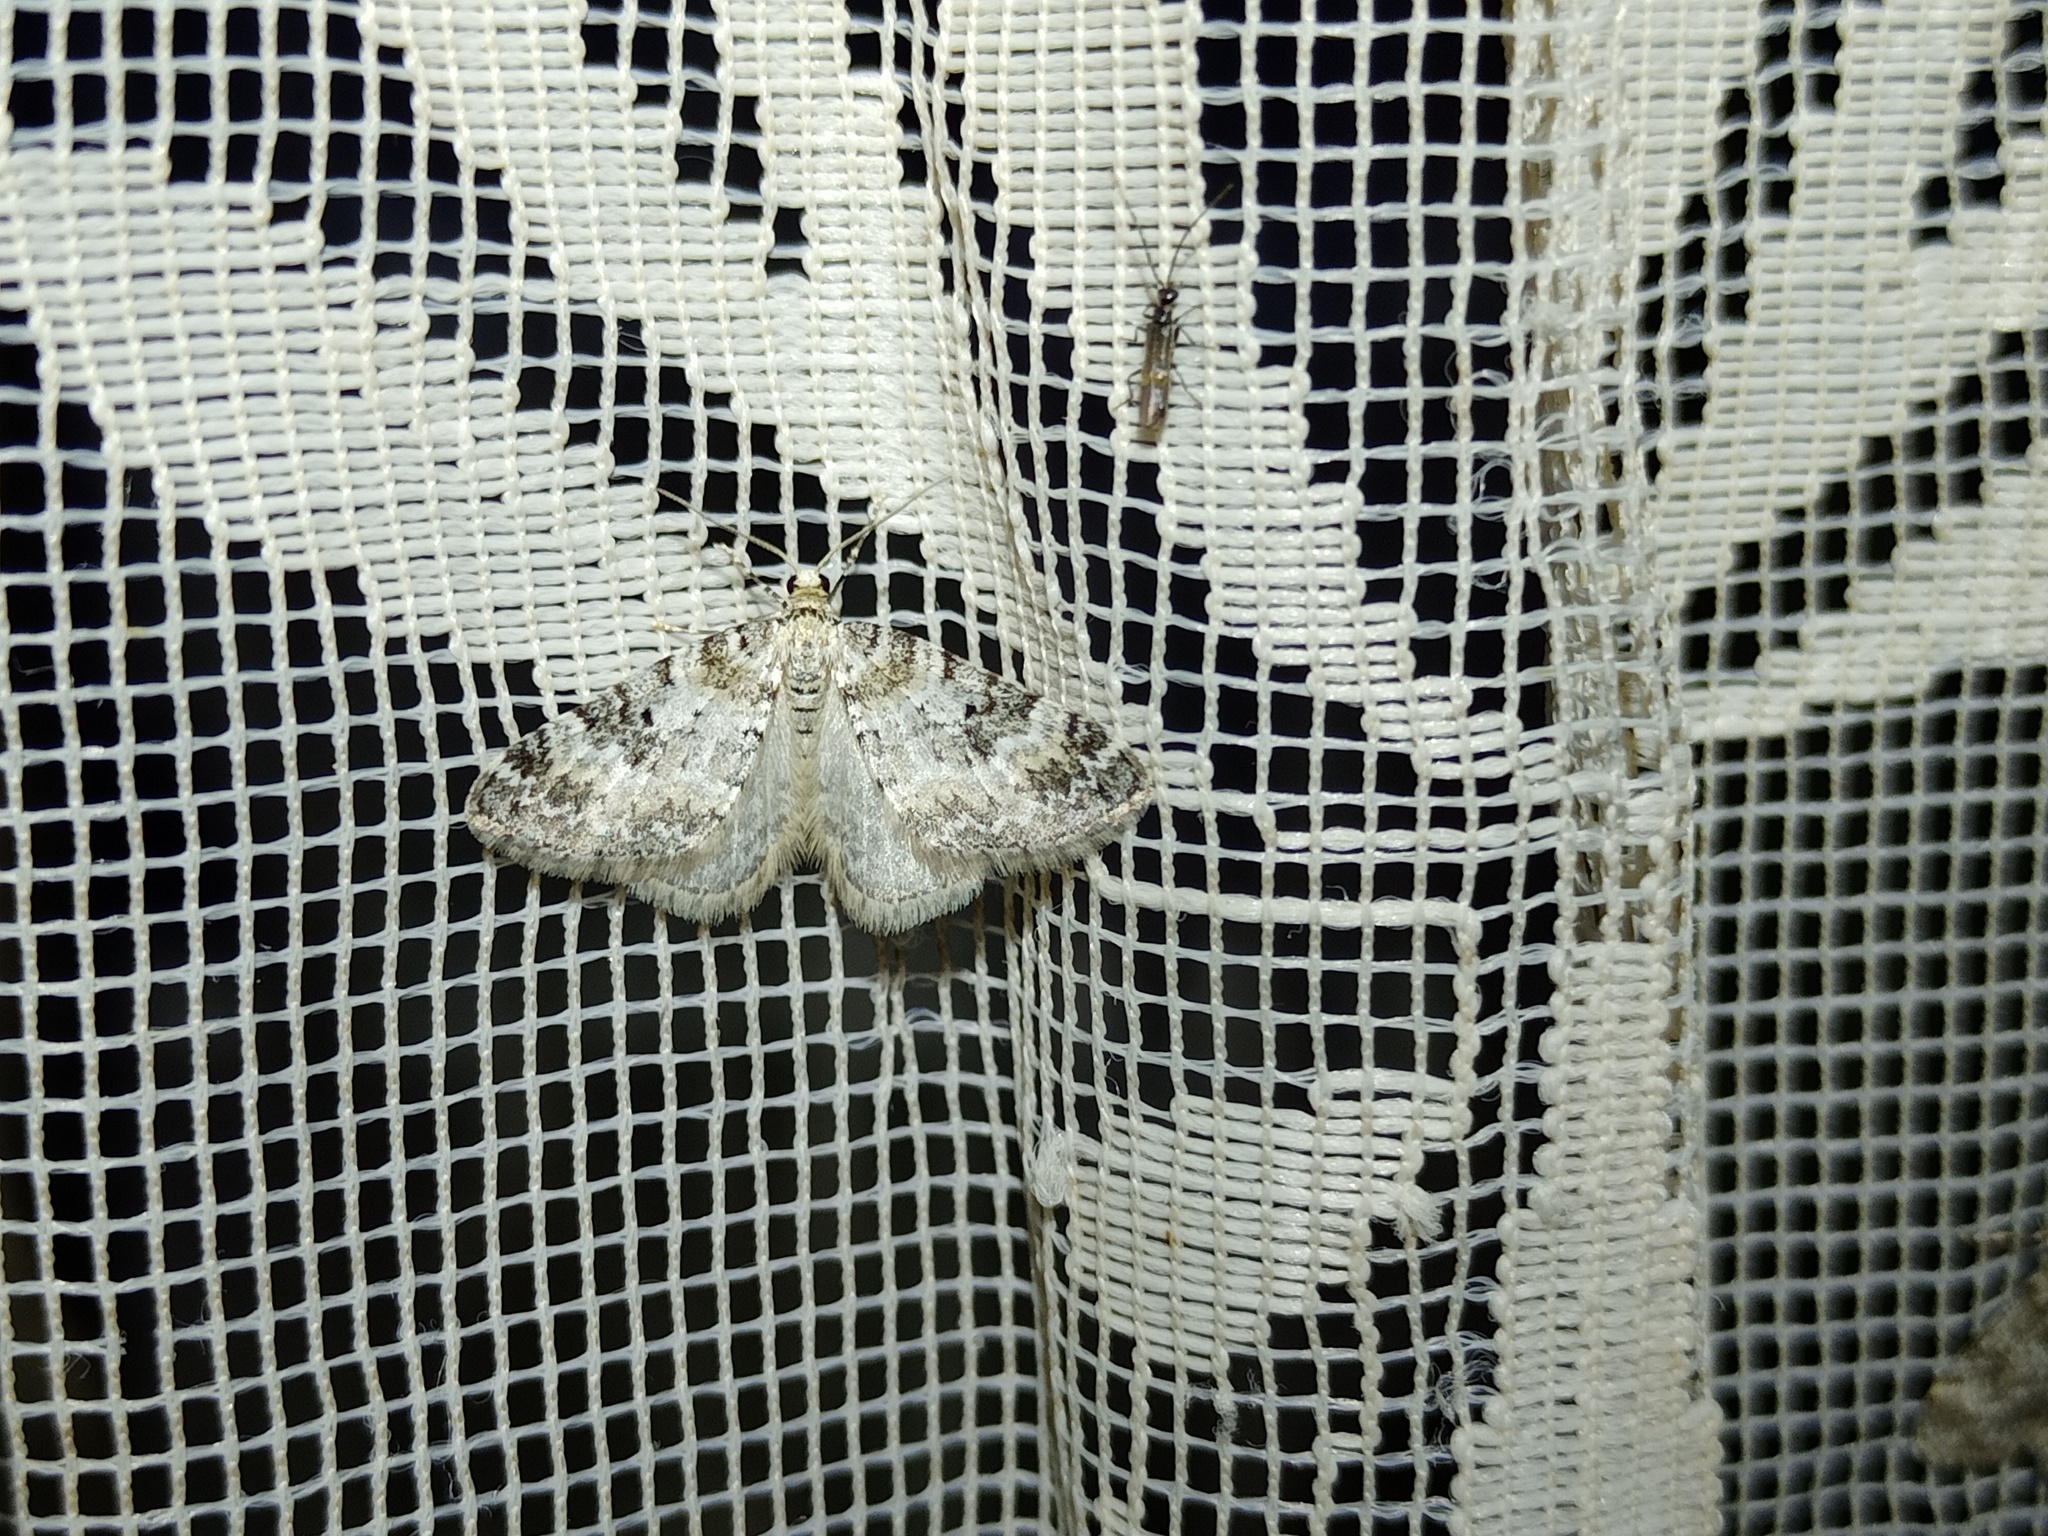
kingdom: Animalia
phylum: Arthropoda
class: Insecta
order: Lepidoptera
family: Geometridae
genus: Perizoma
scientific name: Perizoma minorata
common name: Heath rivulet
